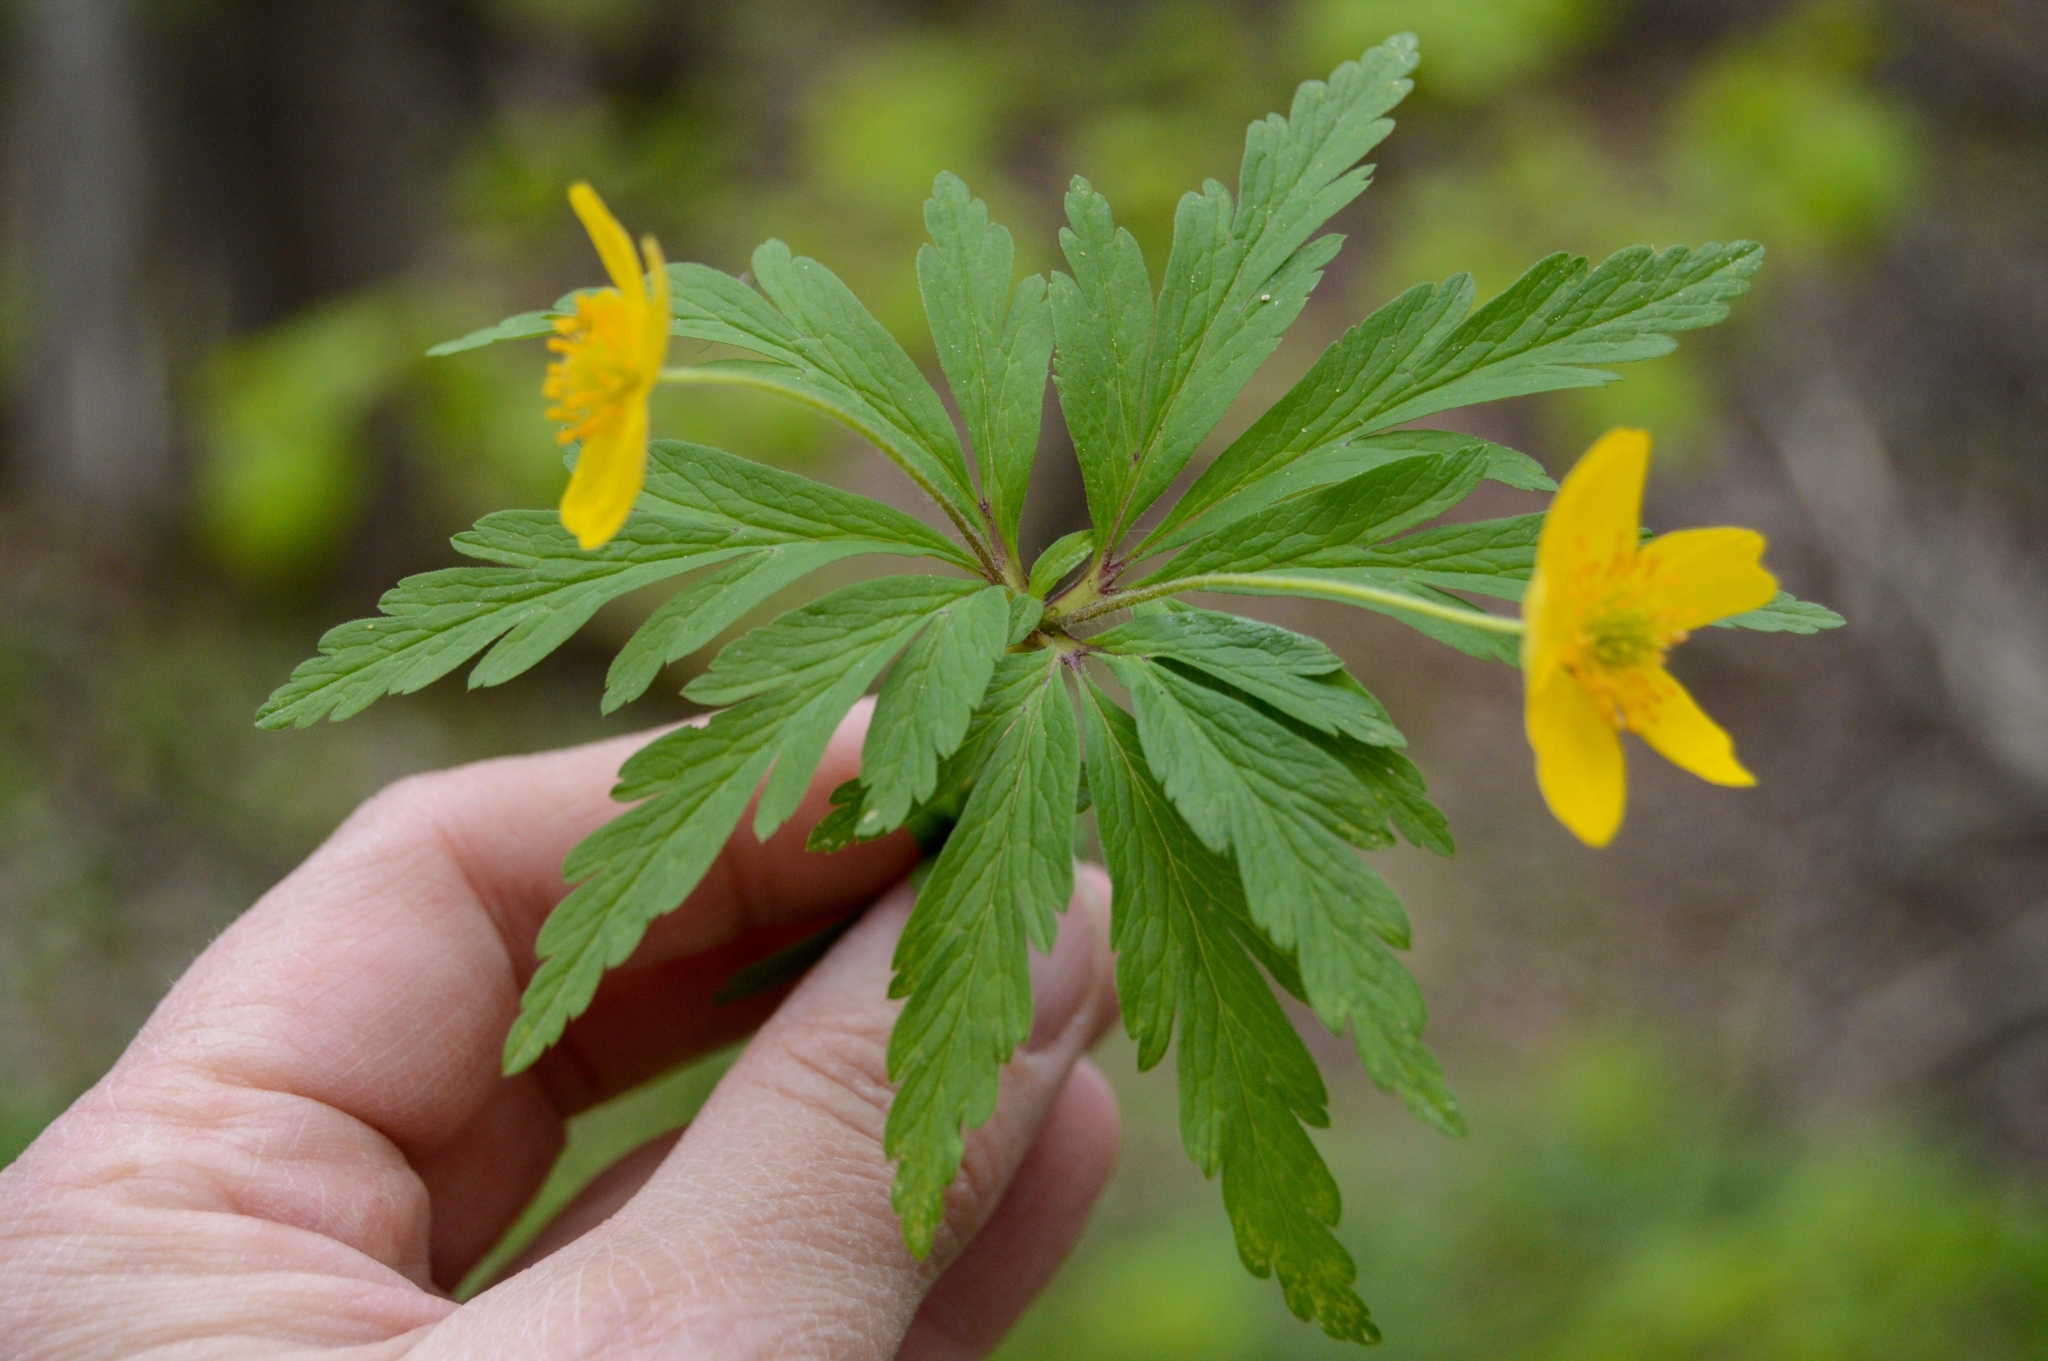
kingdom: Plantae
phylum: Tracheophyta
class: Magnoliopsida
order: Ranunculales
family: Ranunculaceae
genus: Anemone
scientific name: Anemone ranunculoides
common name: Yellow anemone
